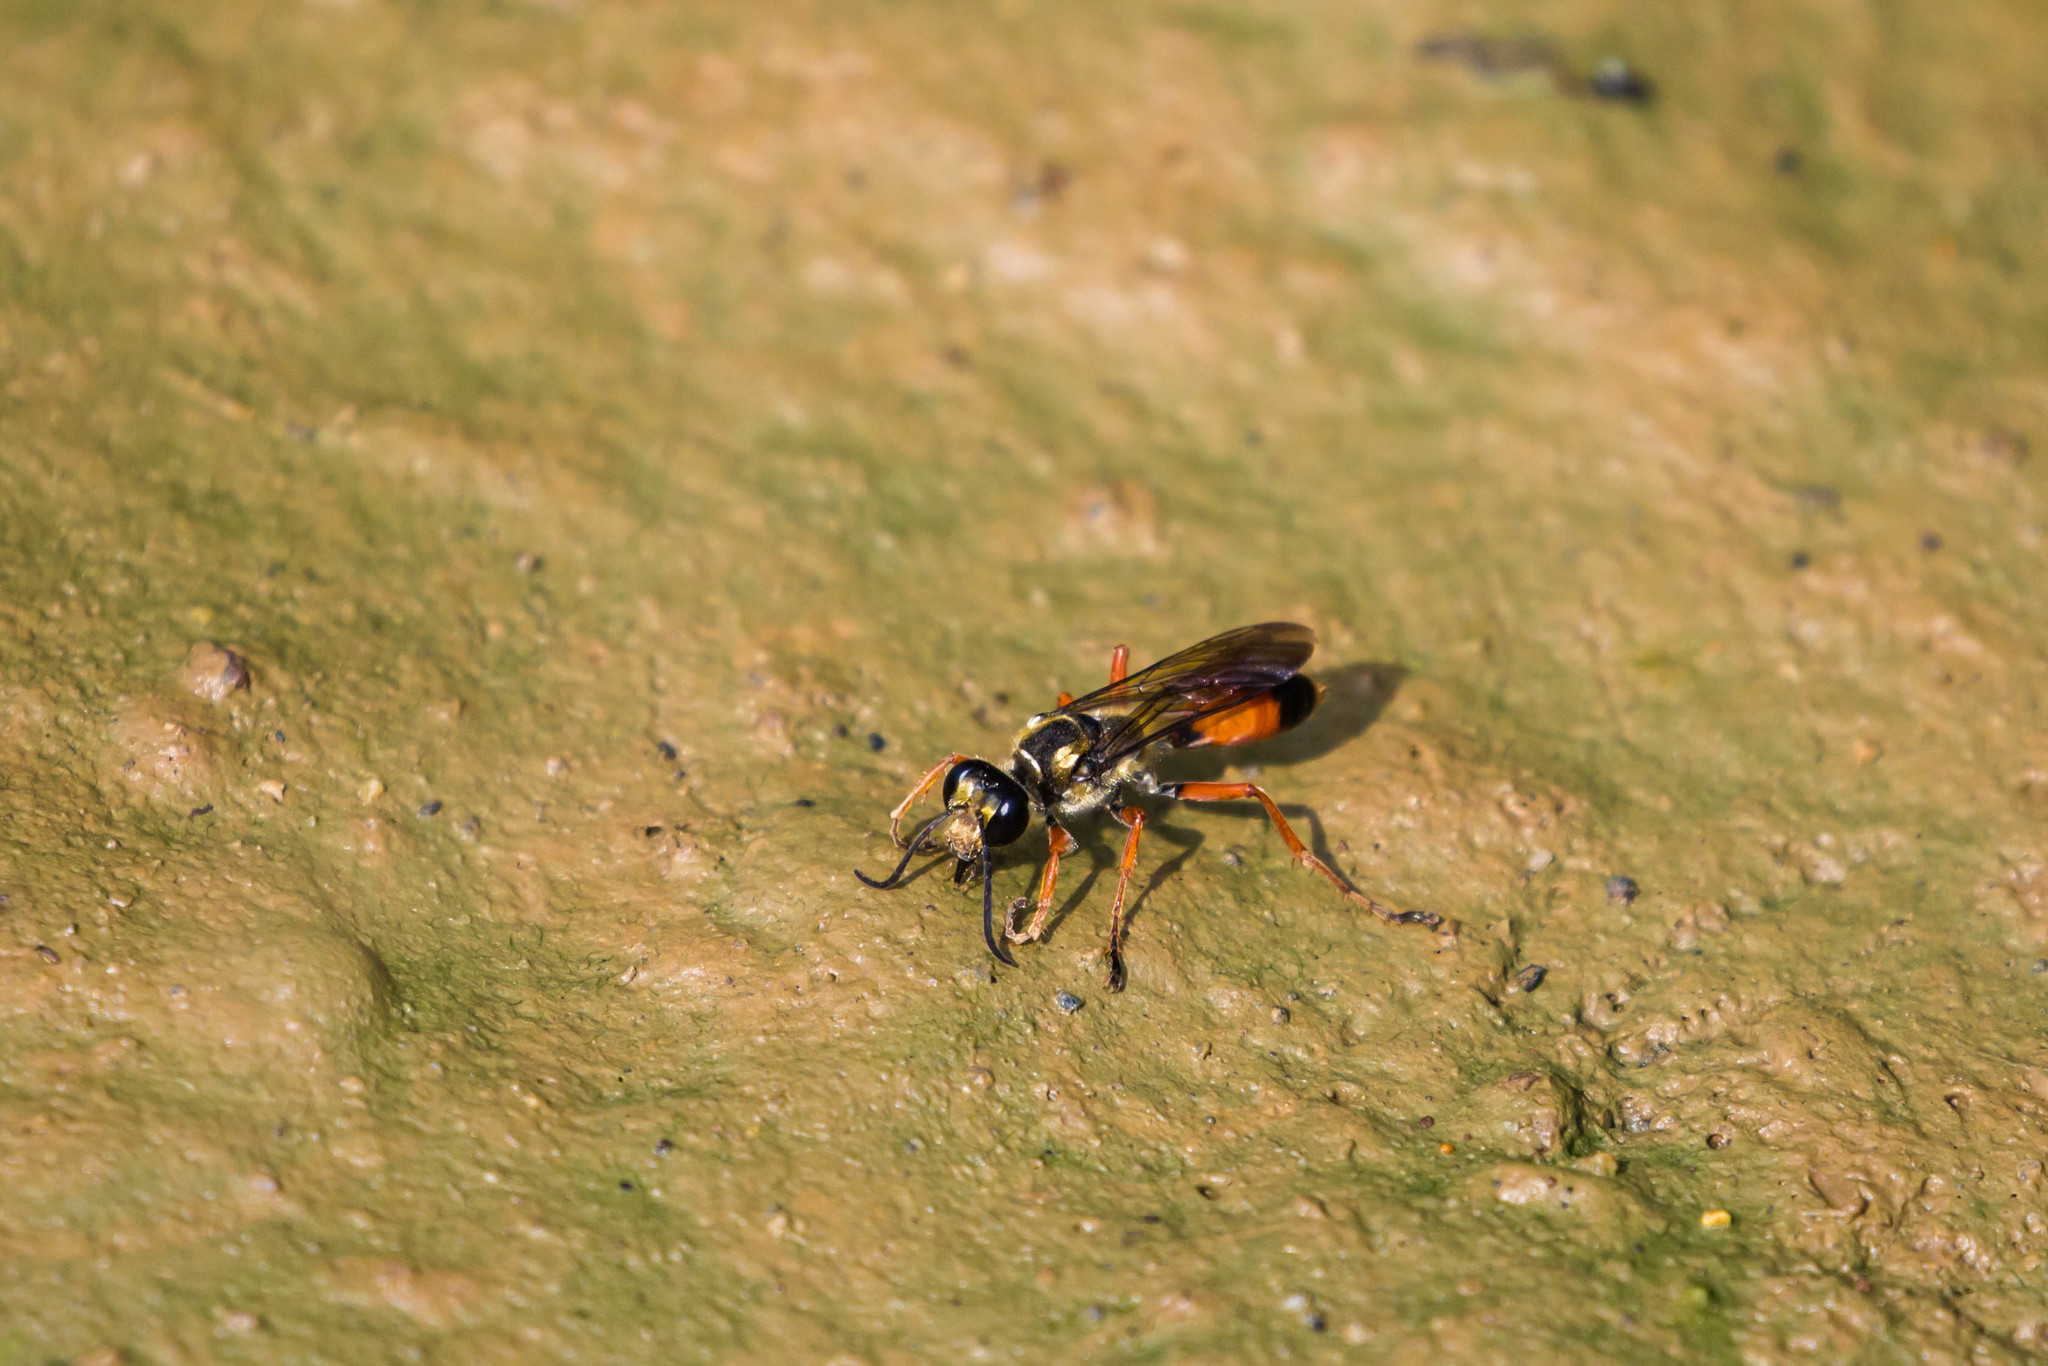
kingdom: Animalia
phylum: Arthropoda
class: Insecta
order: Hymenoptera
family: Sphecidae
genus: Sphex
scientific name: Sphex dorsalis
